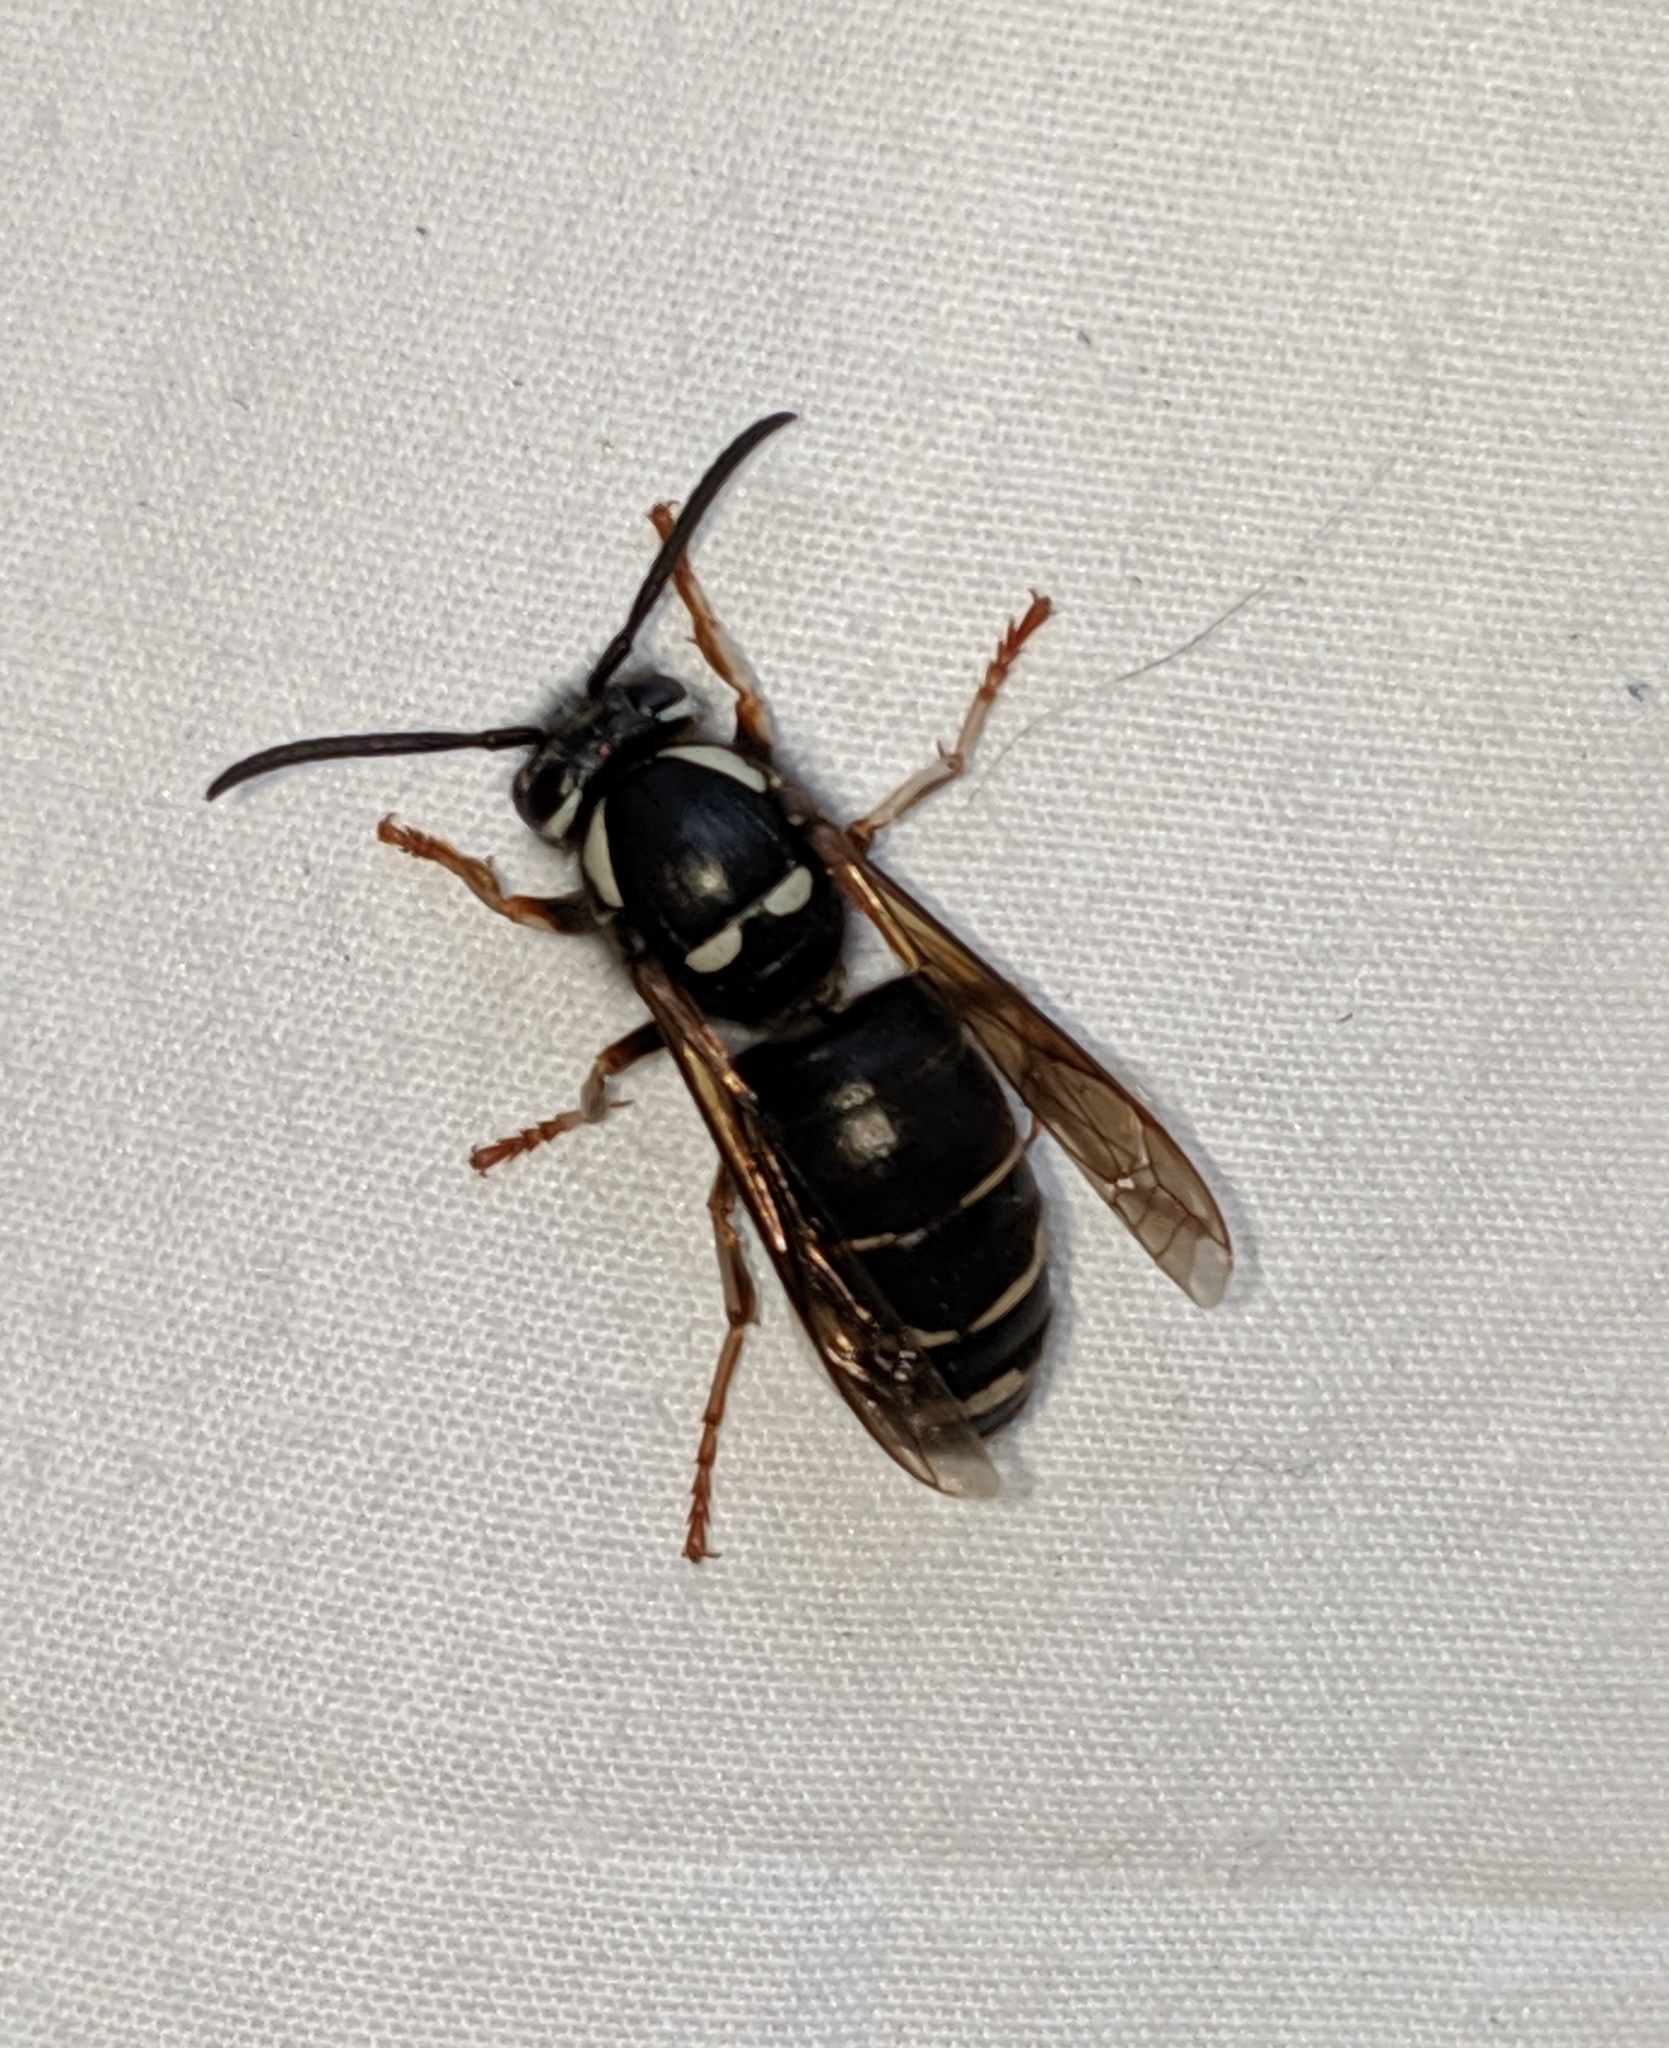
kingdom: Animalia
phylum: Arthropoda
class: Insecta
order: Hymenoptera
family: Vespidae
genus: Vespula
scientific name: Vespula consobrina
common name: Blackjacket
